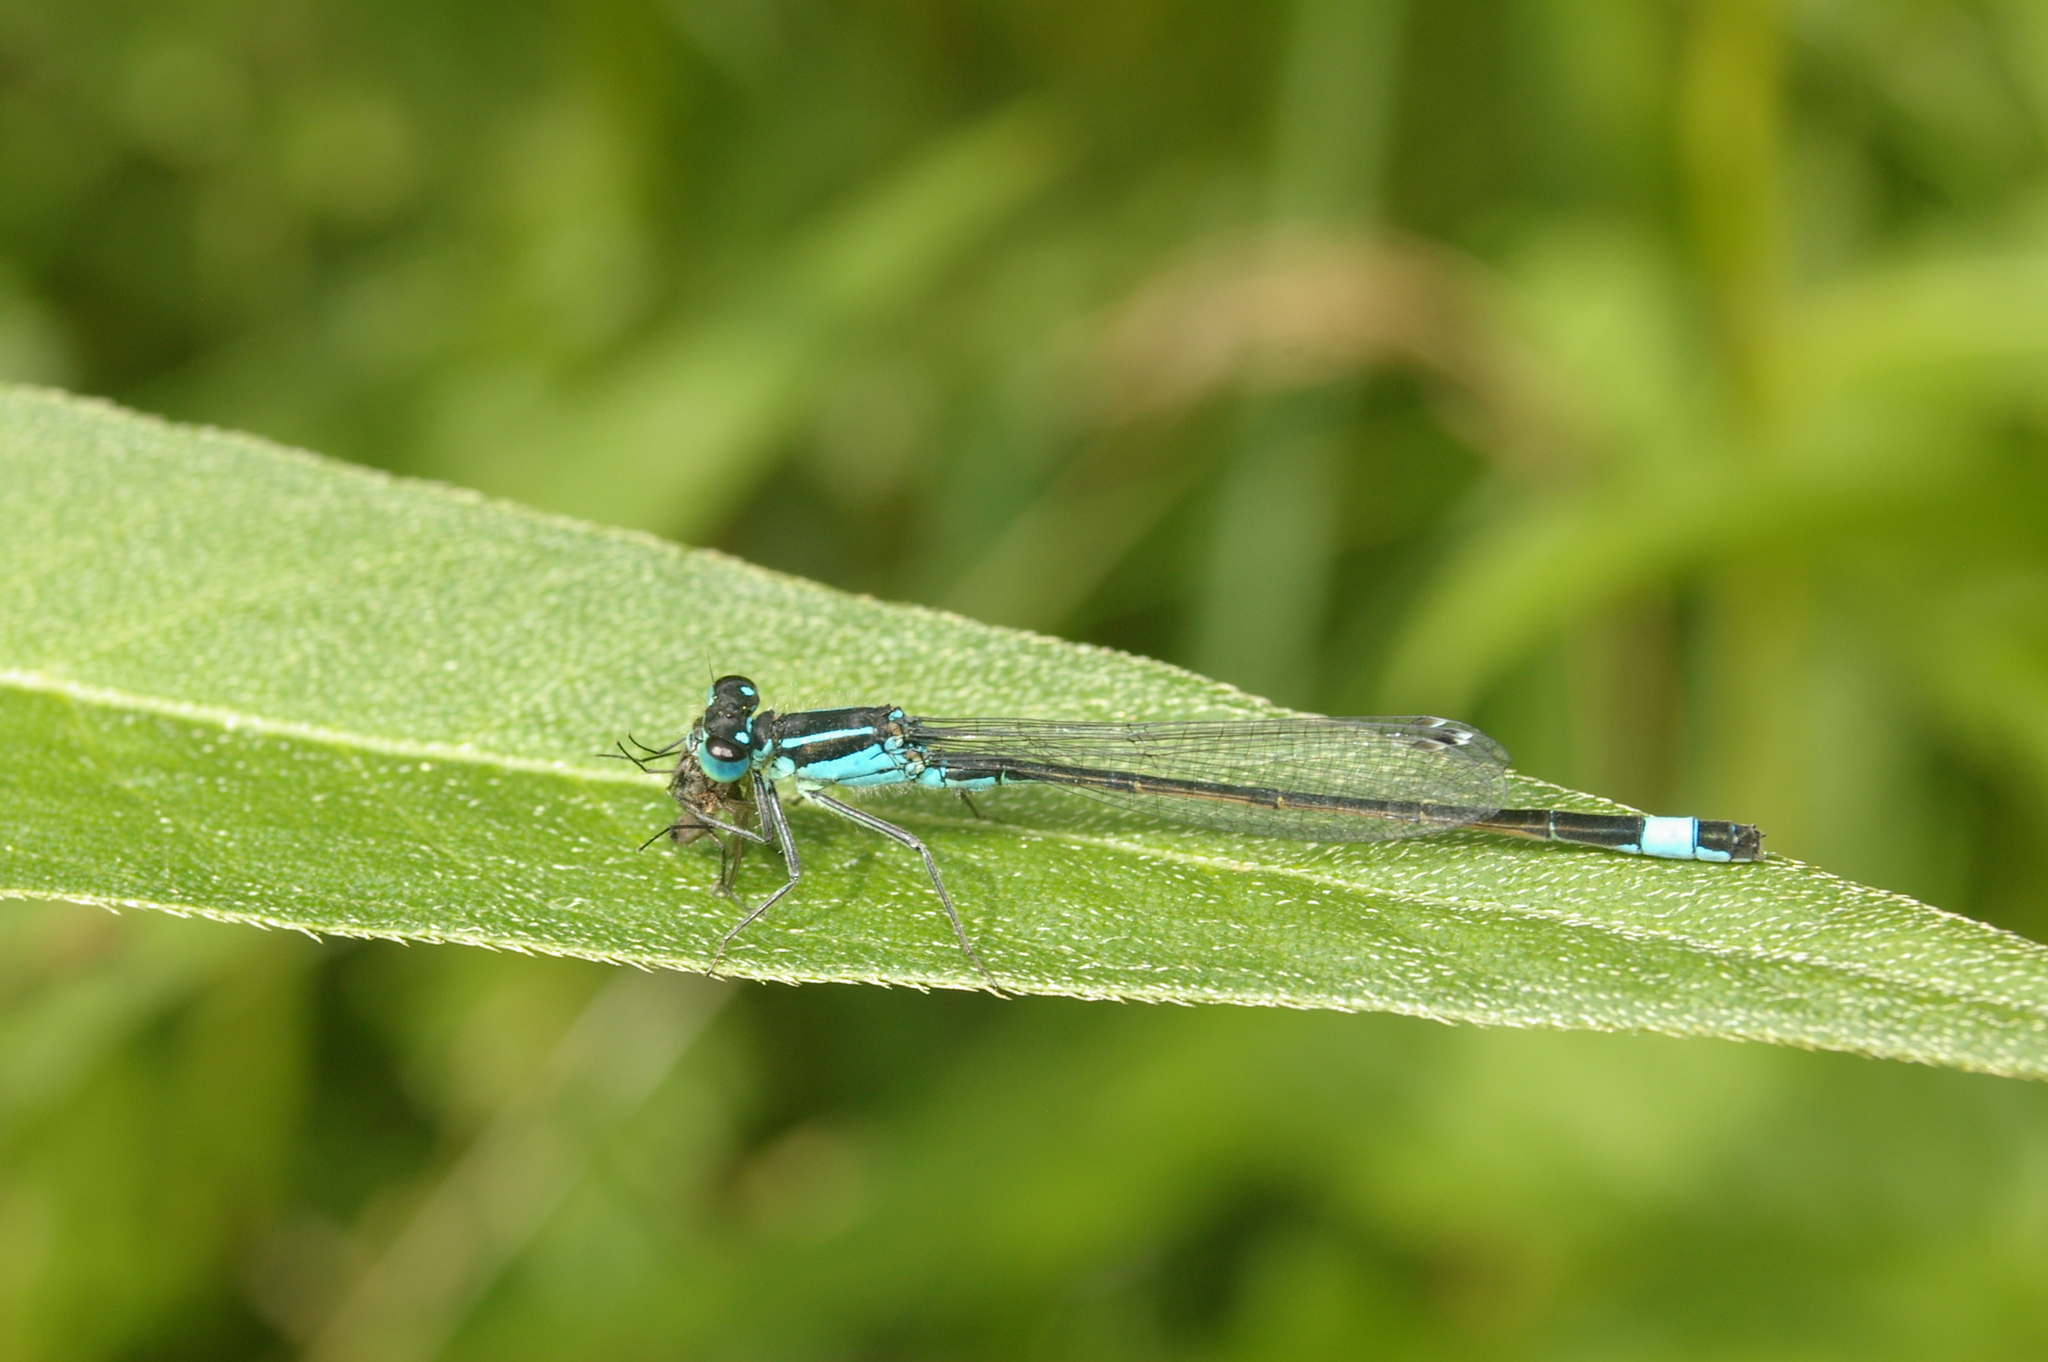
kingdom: Animalia
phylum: Arthropoda
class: Insecta
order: Odonata
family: Coenagrionidae
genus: Ischnura
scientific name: Ischnura elegans
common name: Blue-tailed damselfly
